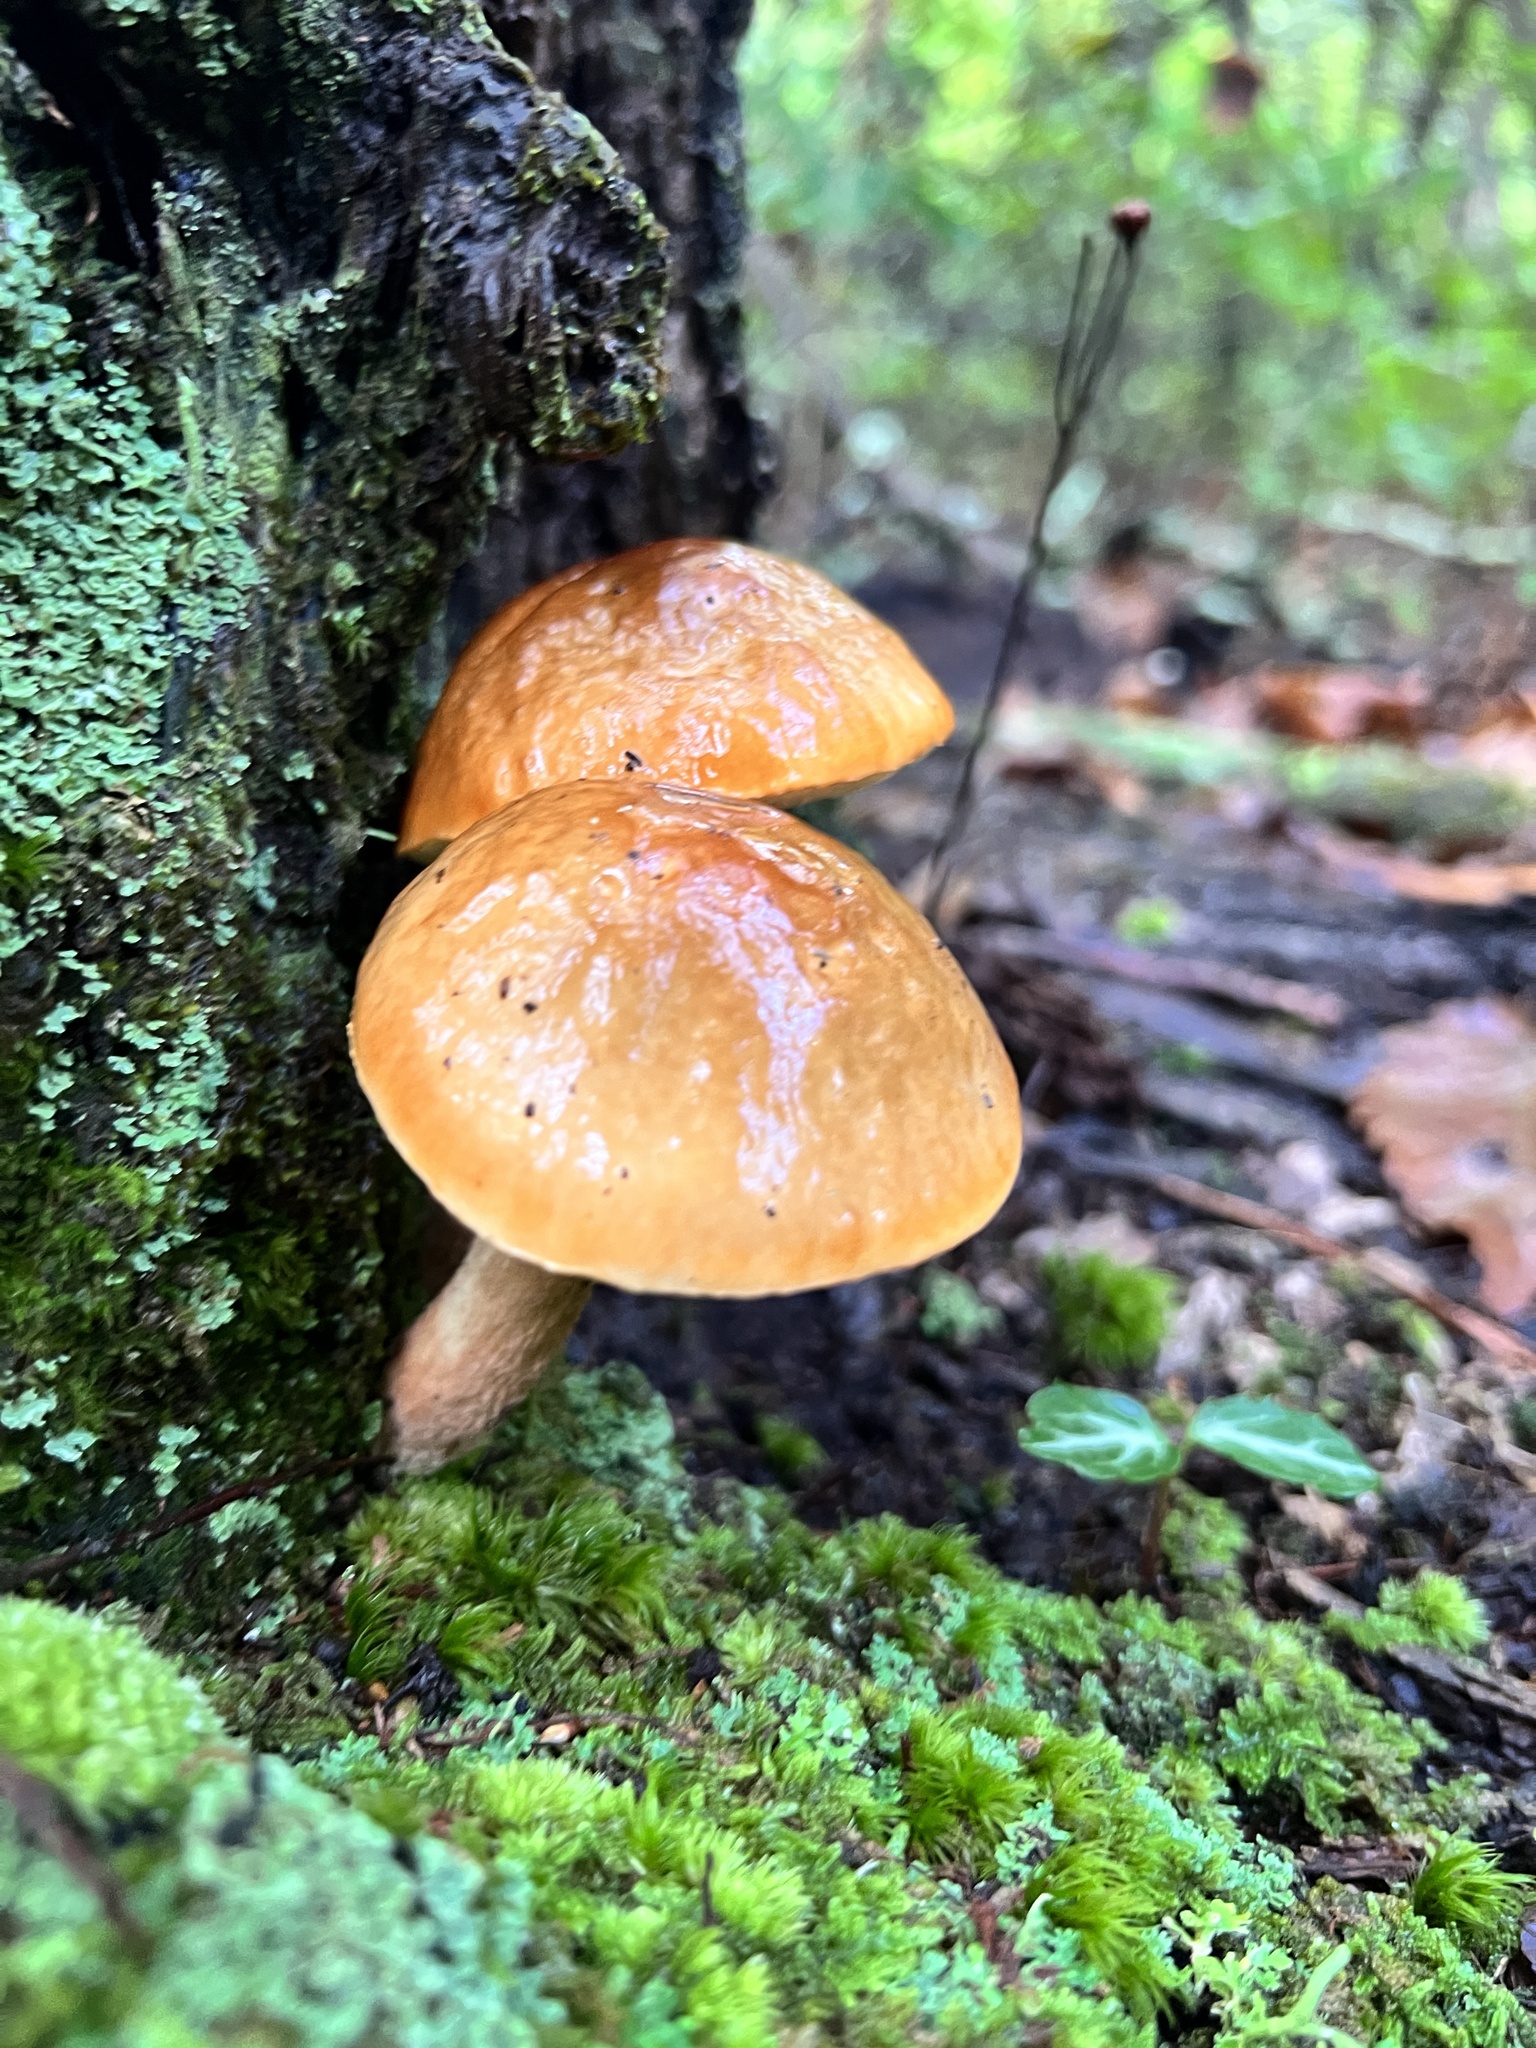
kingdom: Fungi
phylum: Basidiomycota
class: Agaricomycetes
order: Boletales
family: Boletaceae
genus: Leccinum
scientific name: Leccinum longicurvipes
